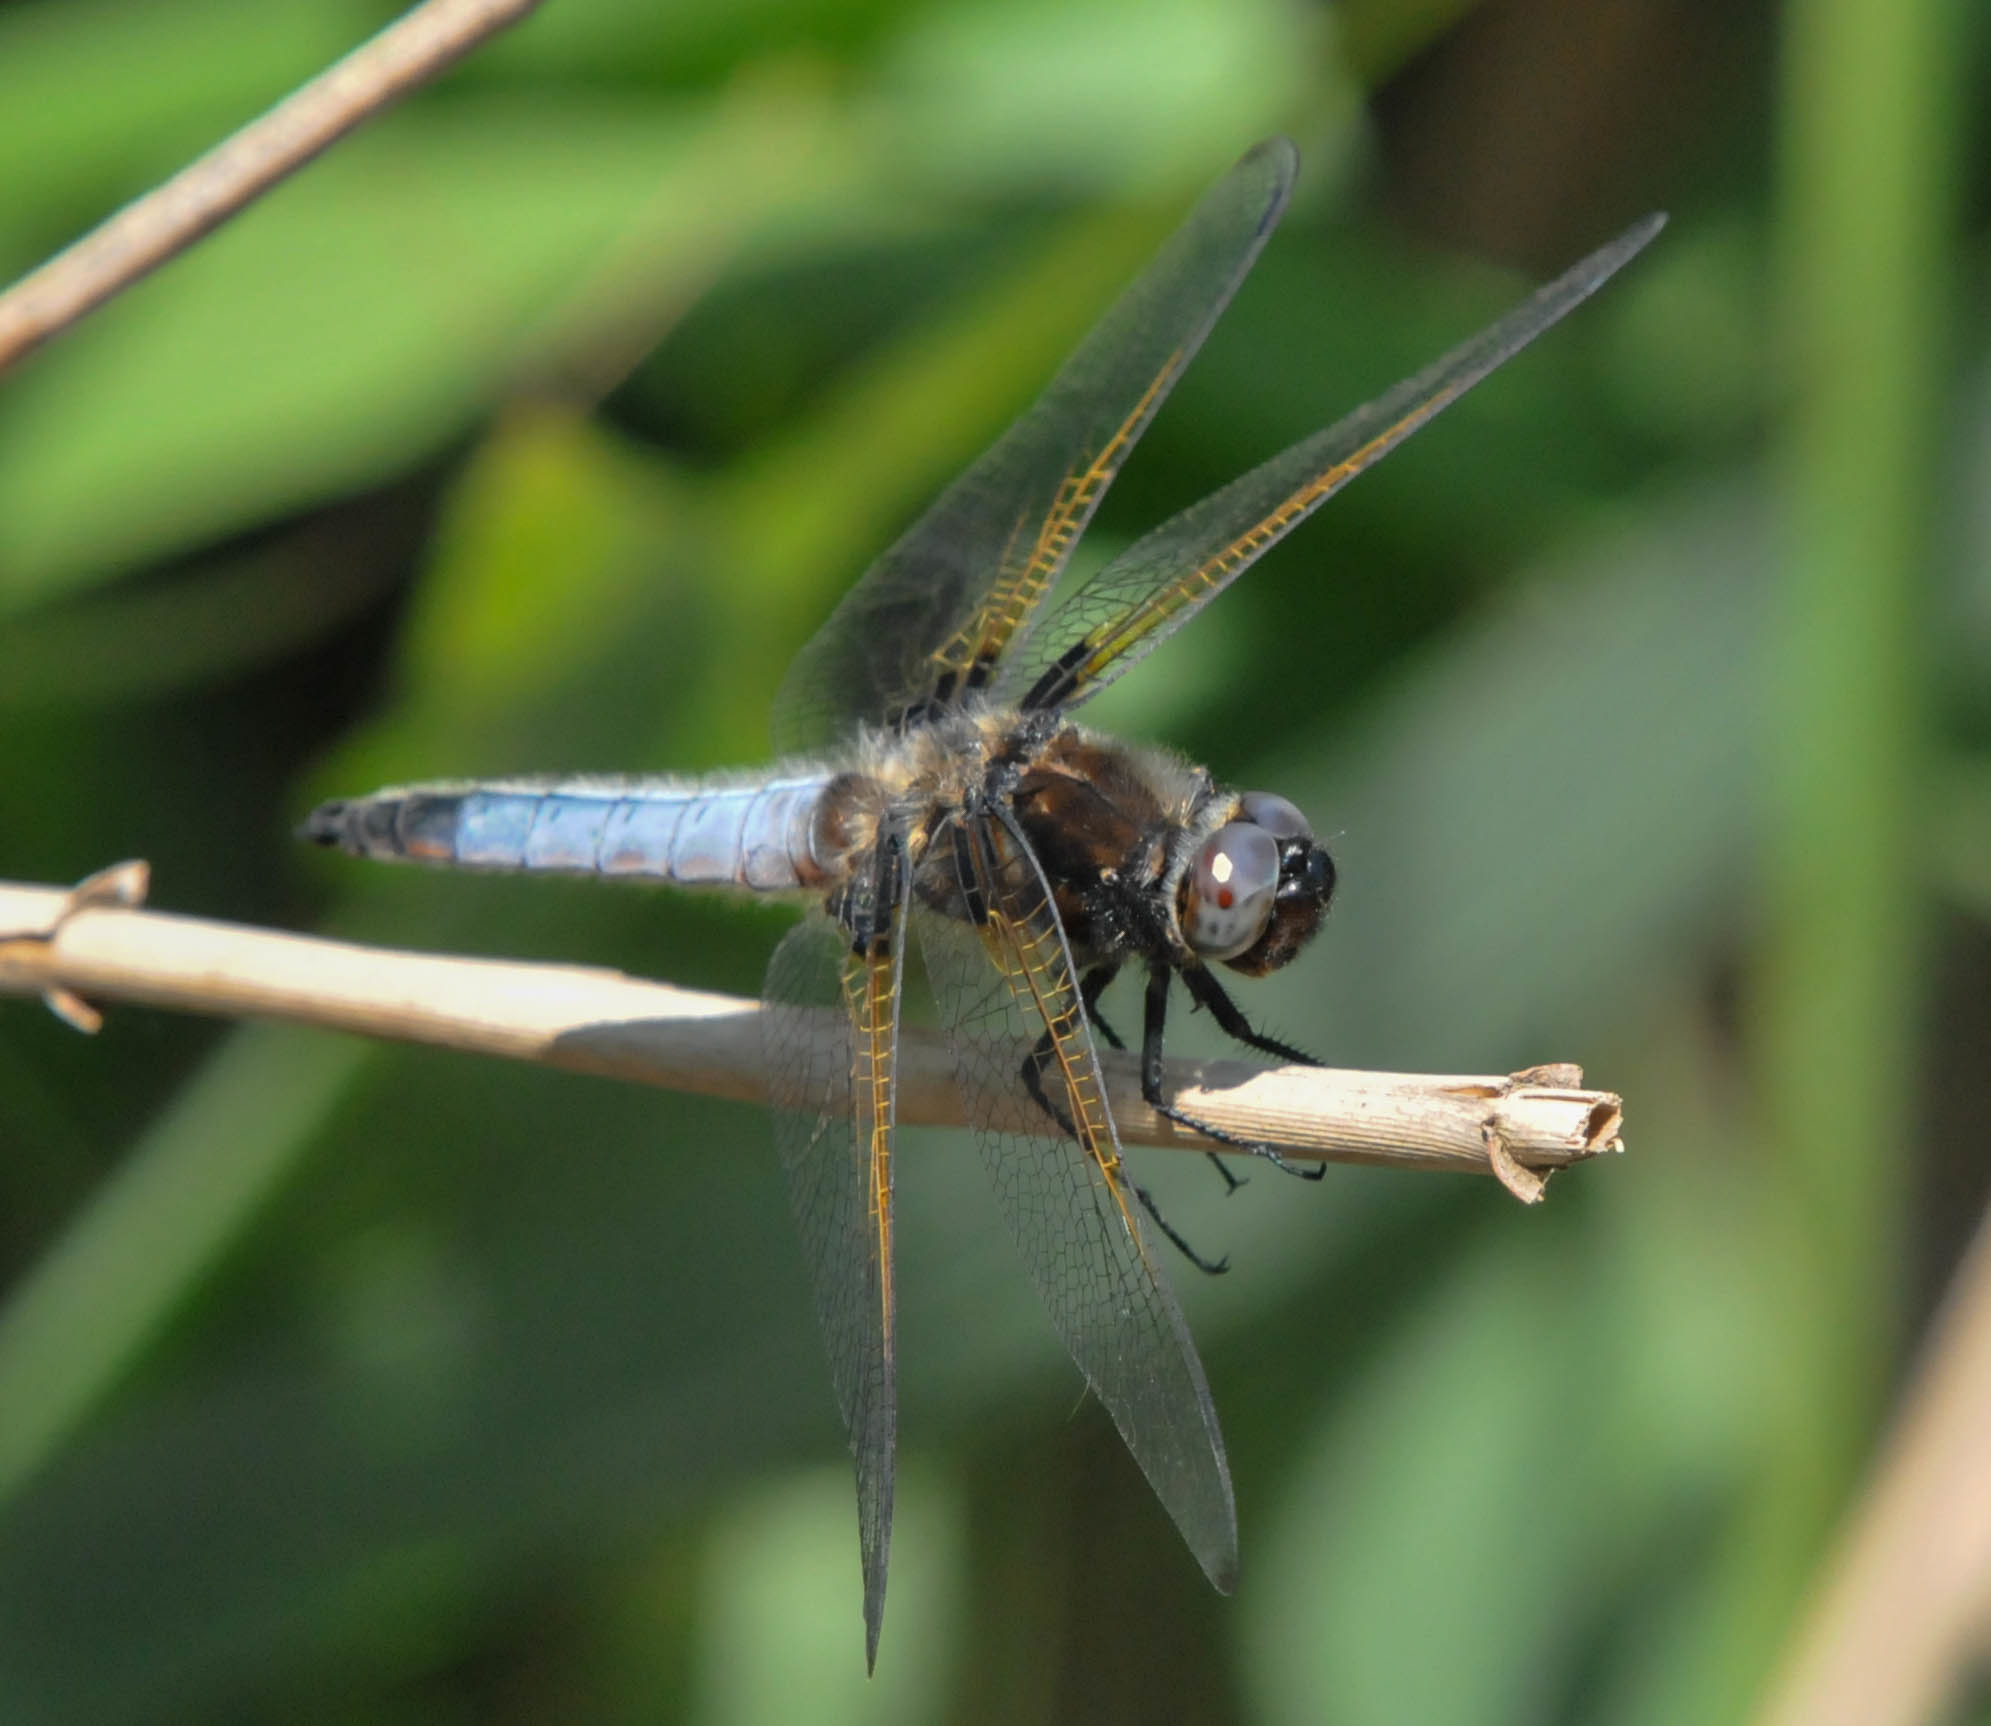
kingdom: Animalia
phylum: Arthropoda
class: Insecta
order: Odonata
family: Libellulidae
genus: Libellula
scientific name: Libellula fulva
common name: Blue chaser
